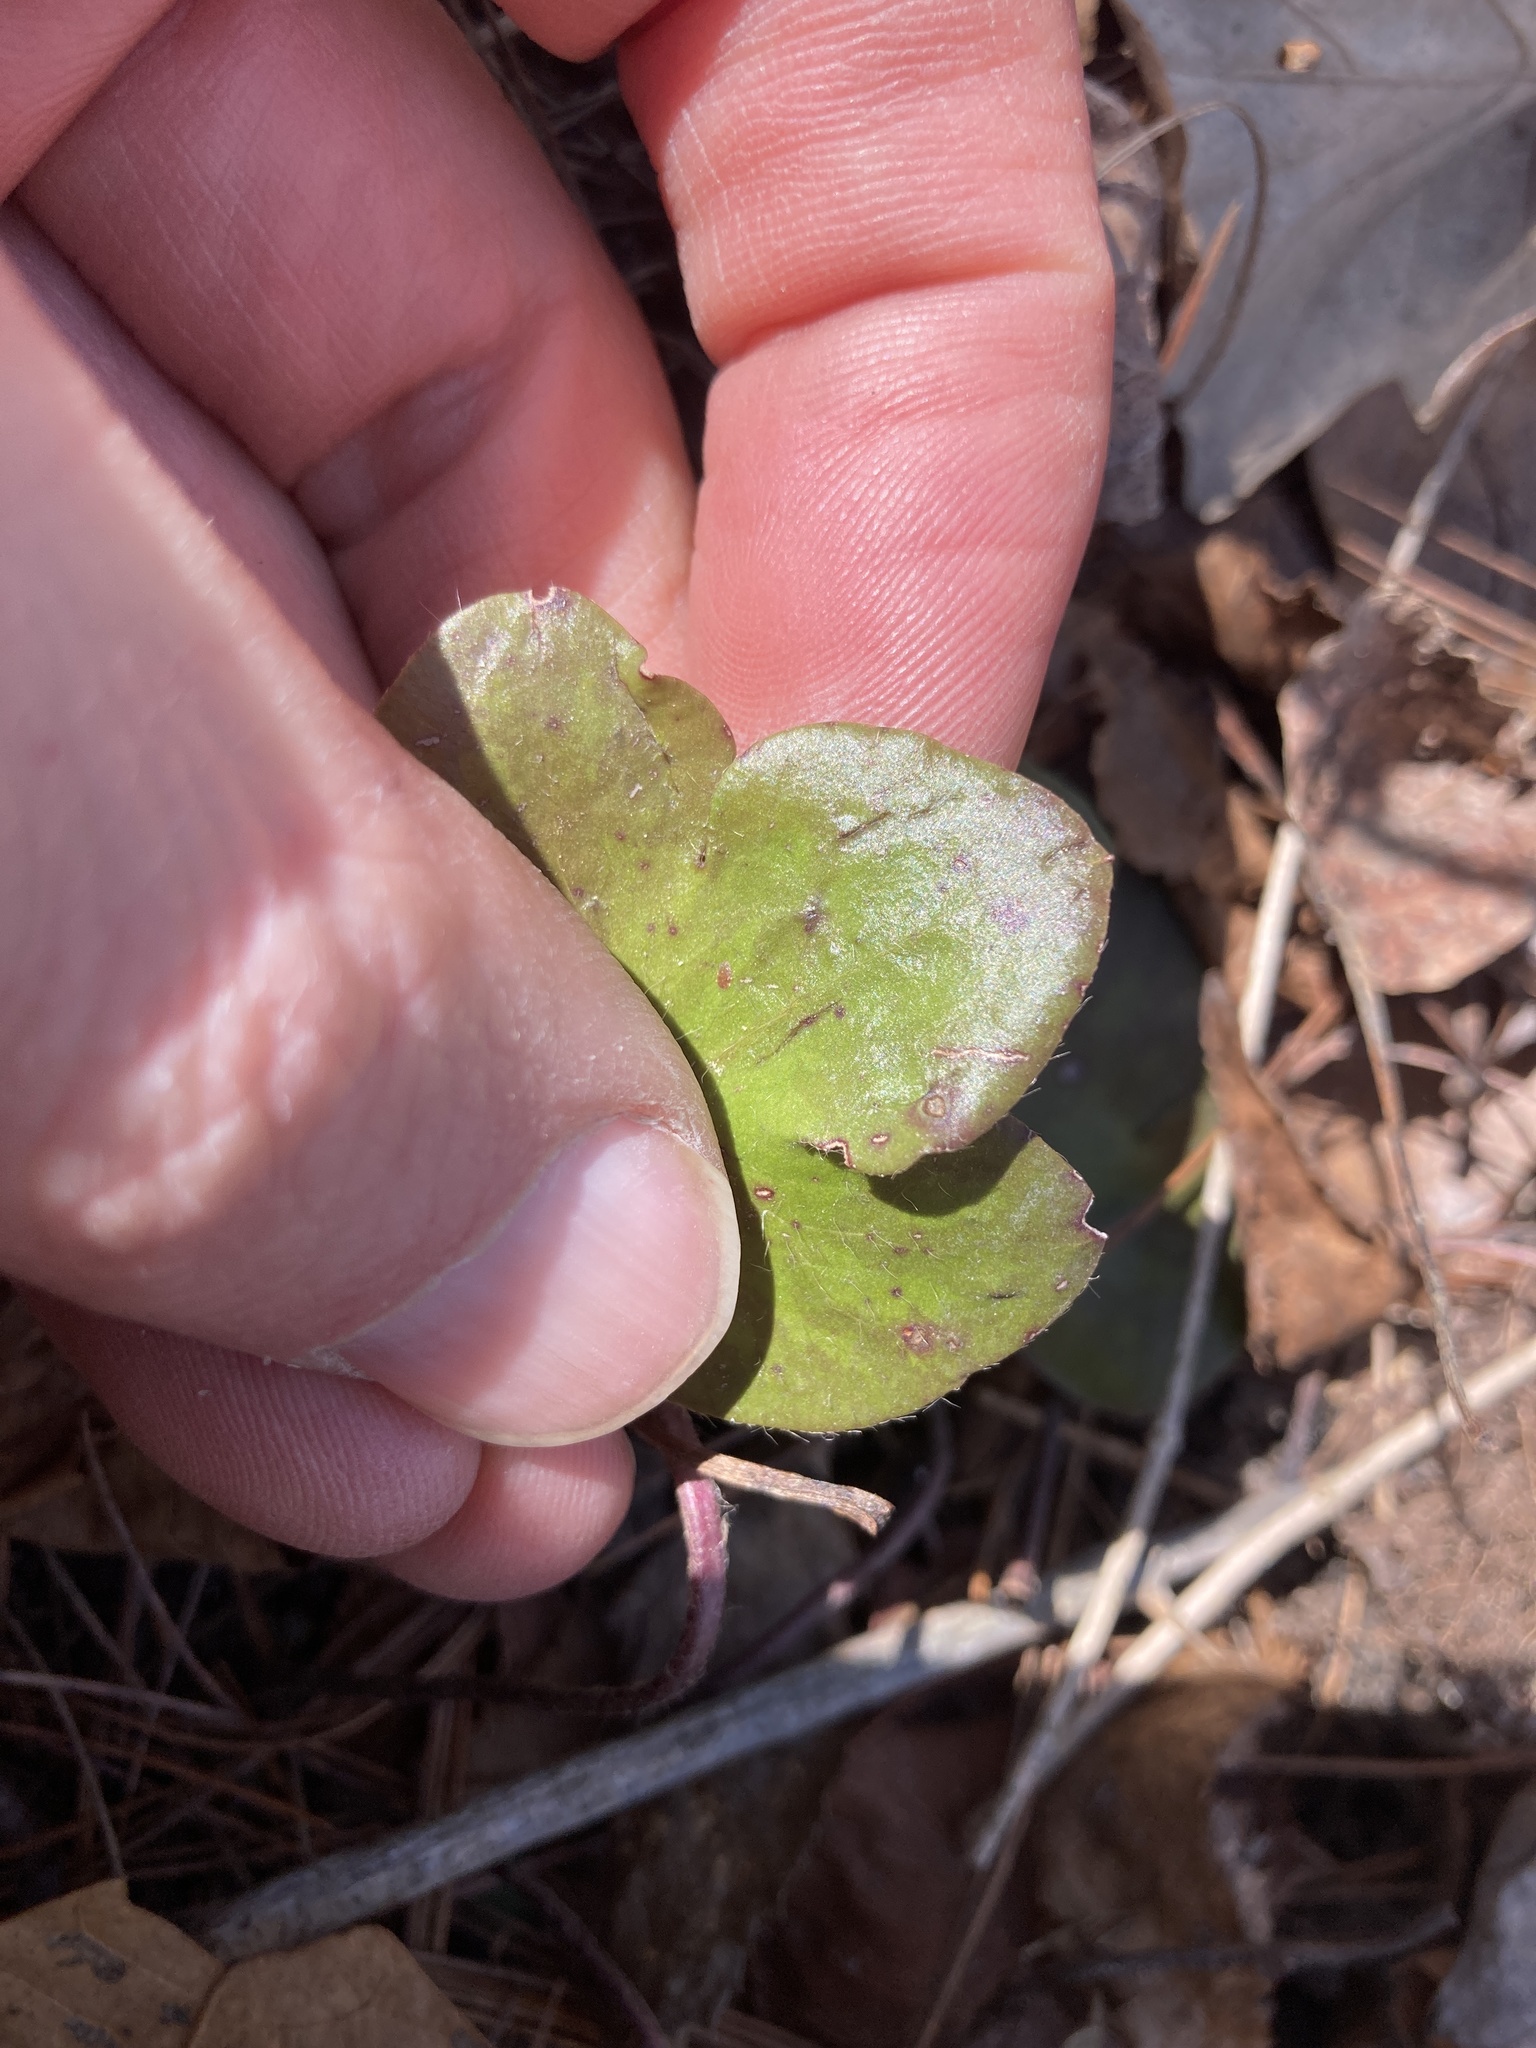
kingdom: Plantae
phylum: Tracheophyta
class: Magnoliopsida
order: Ranunculales
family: Ranunculaceae
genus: Hepatica
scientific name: Hepatica americana
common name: American hepatica
